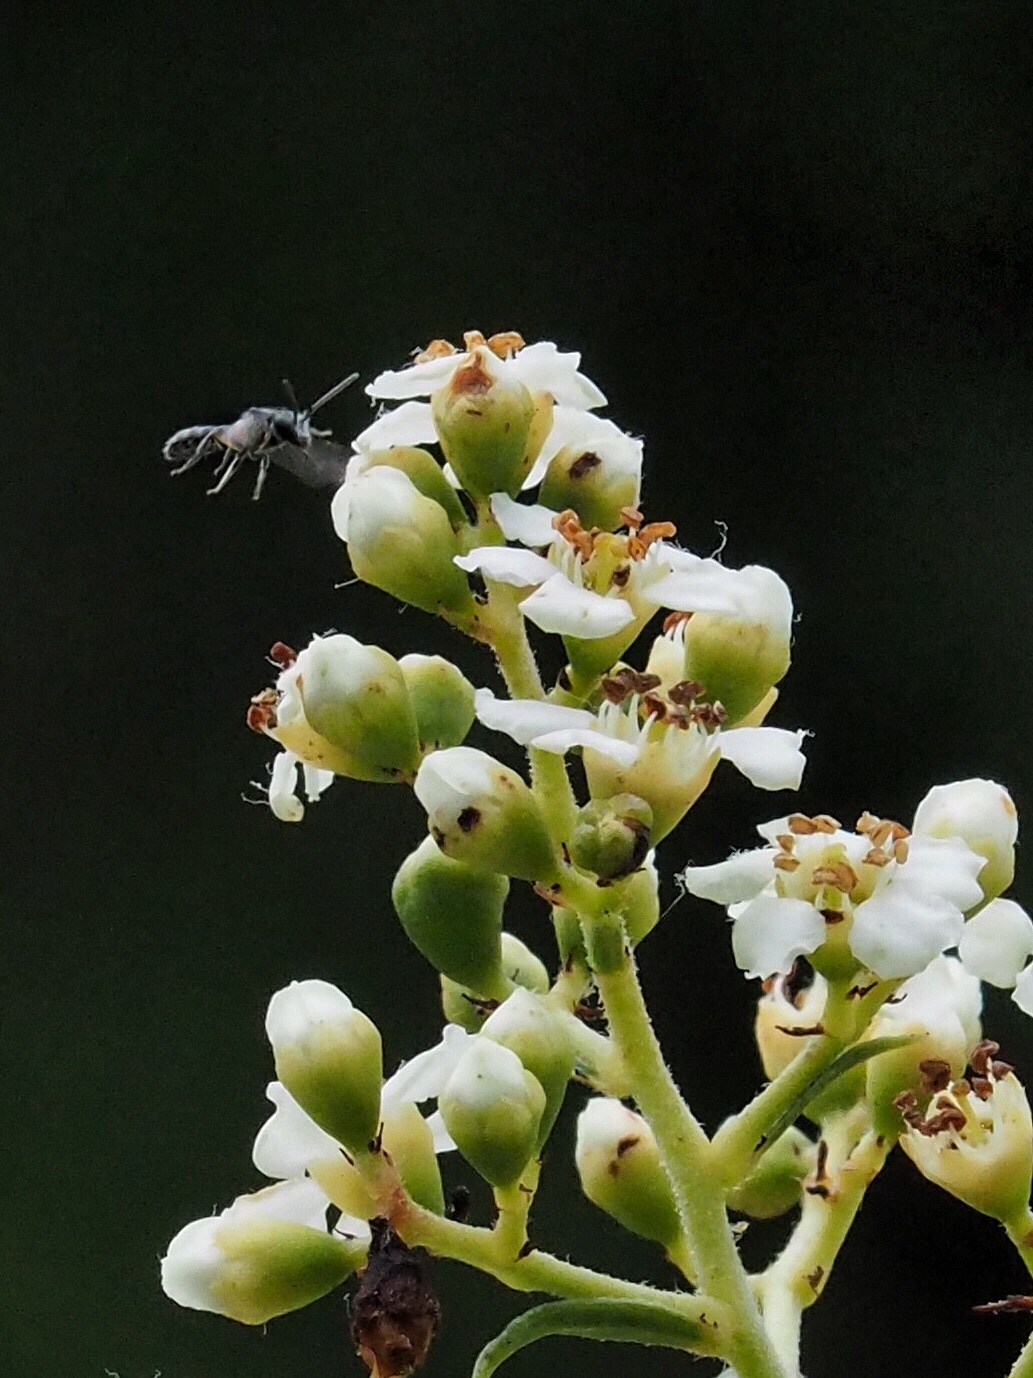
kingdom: Animalia
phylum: Arthropoda
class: Insecta
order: Hymenoptera
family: Halictidae
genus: Dialictus
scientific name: Dialictus
